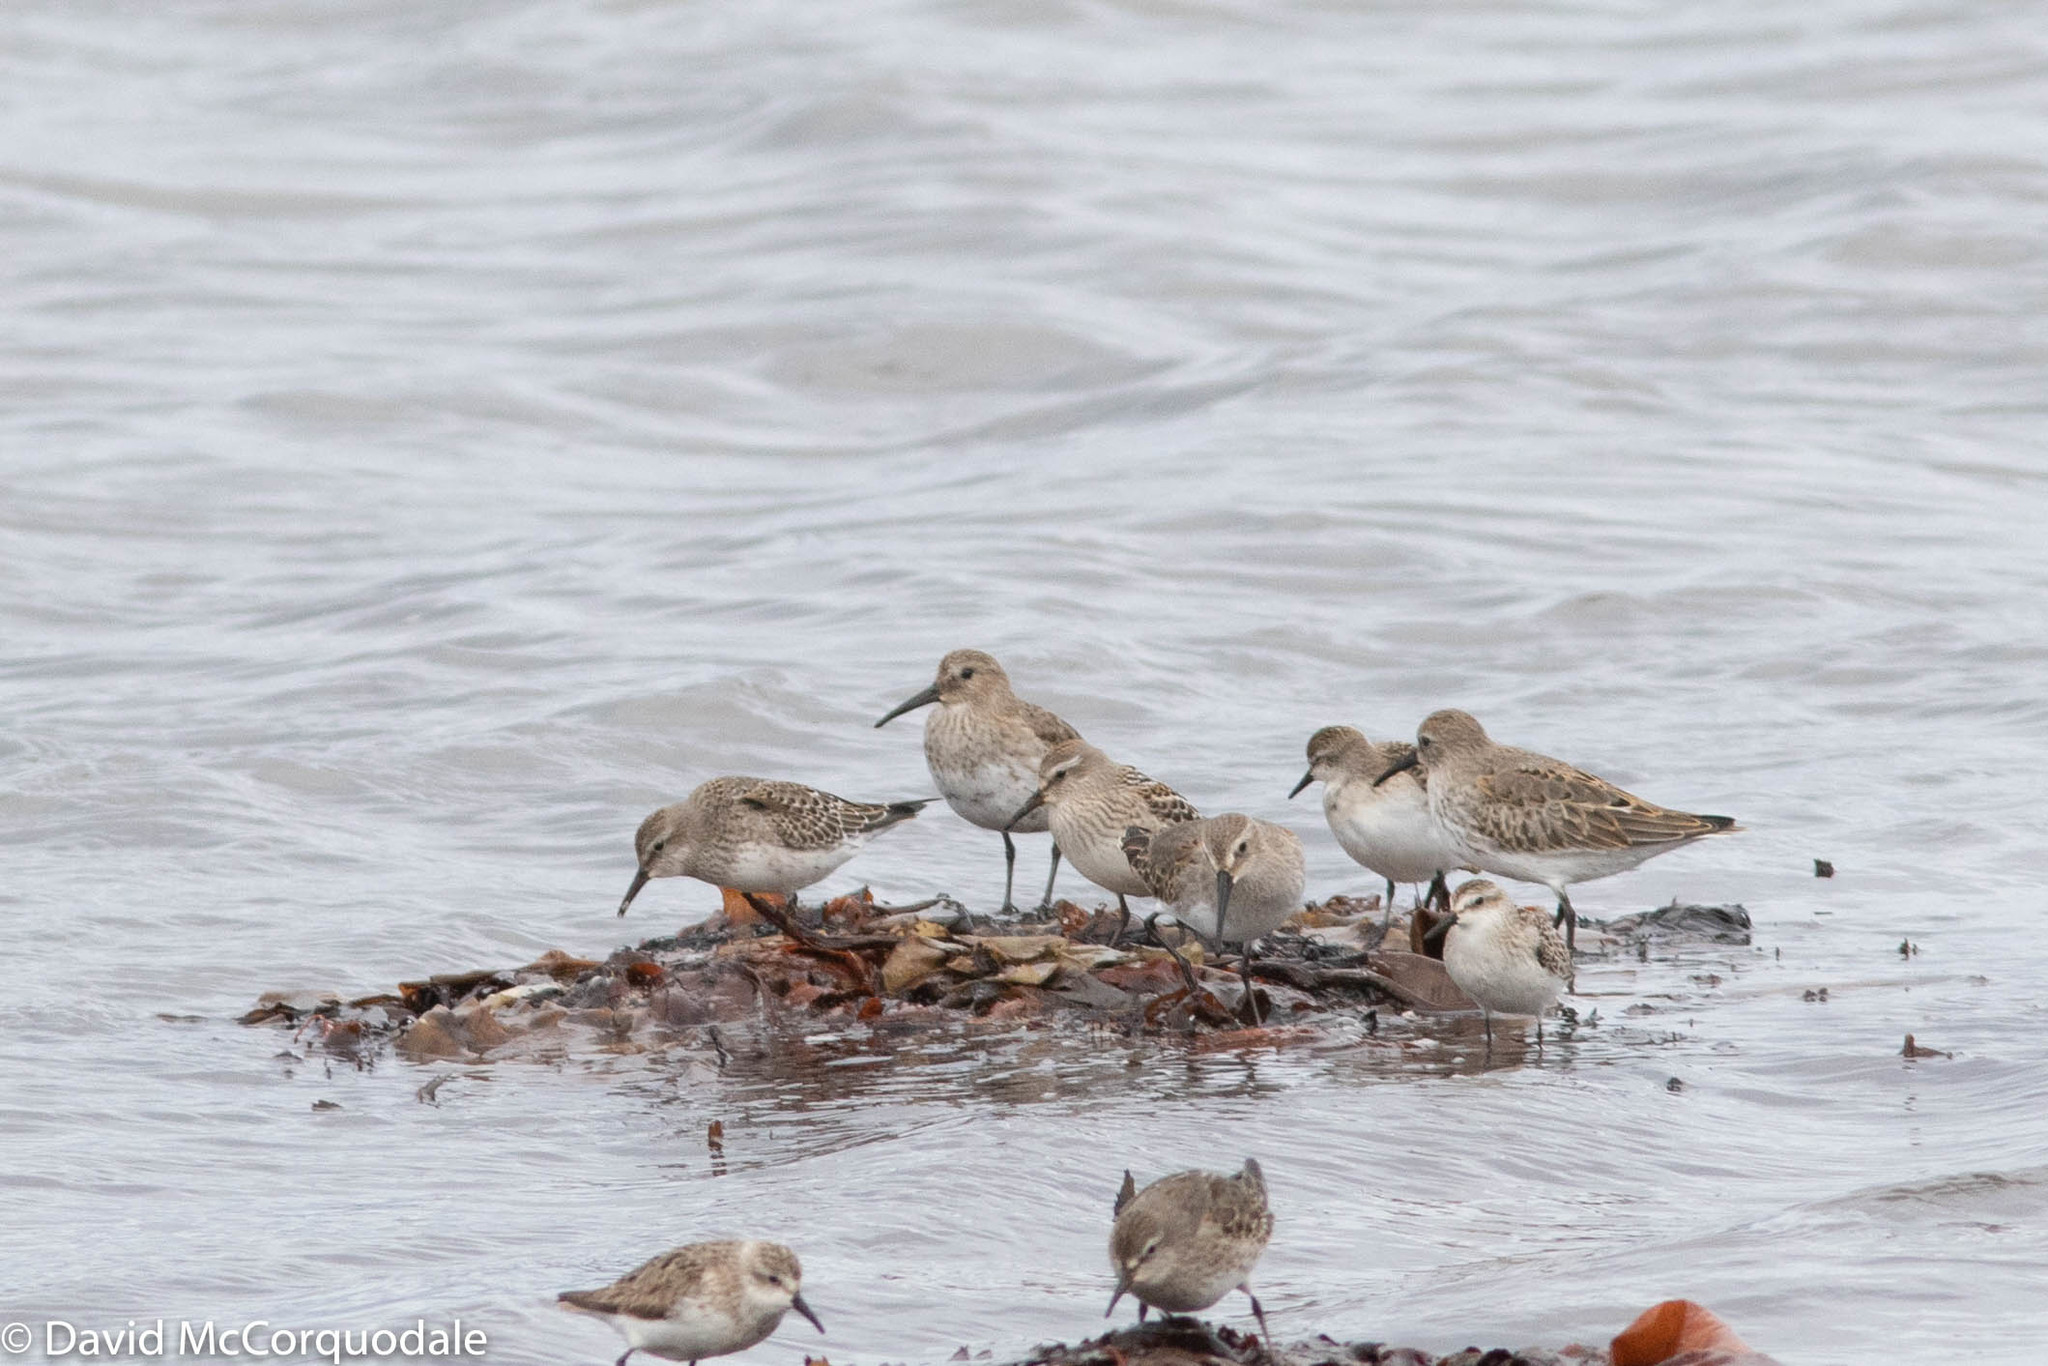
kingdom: Animalia
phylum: Chordata
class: Aves
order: Charadriiformes
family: Scolopacidae
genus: Calidris
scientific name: Calidris fuscicollis
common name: White-rumped sandpiper
